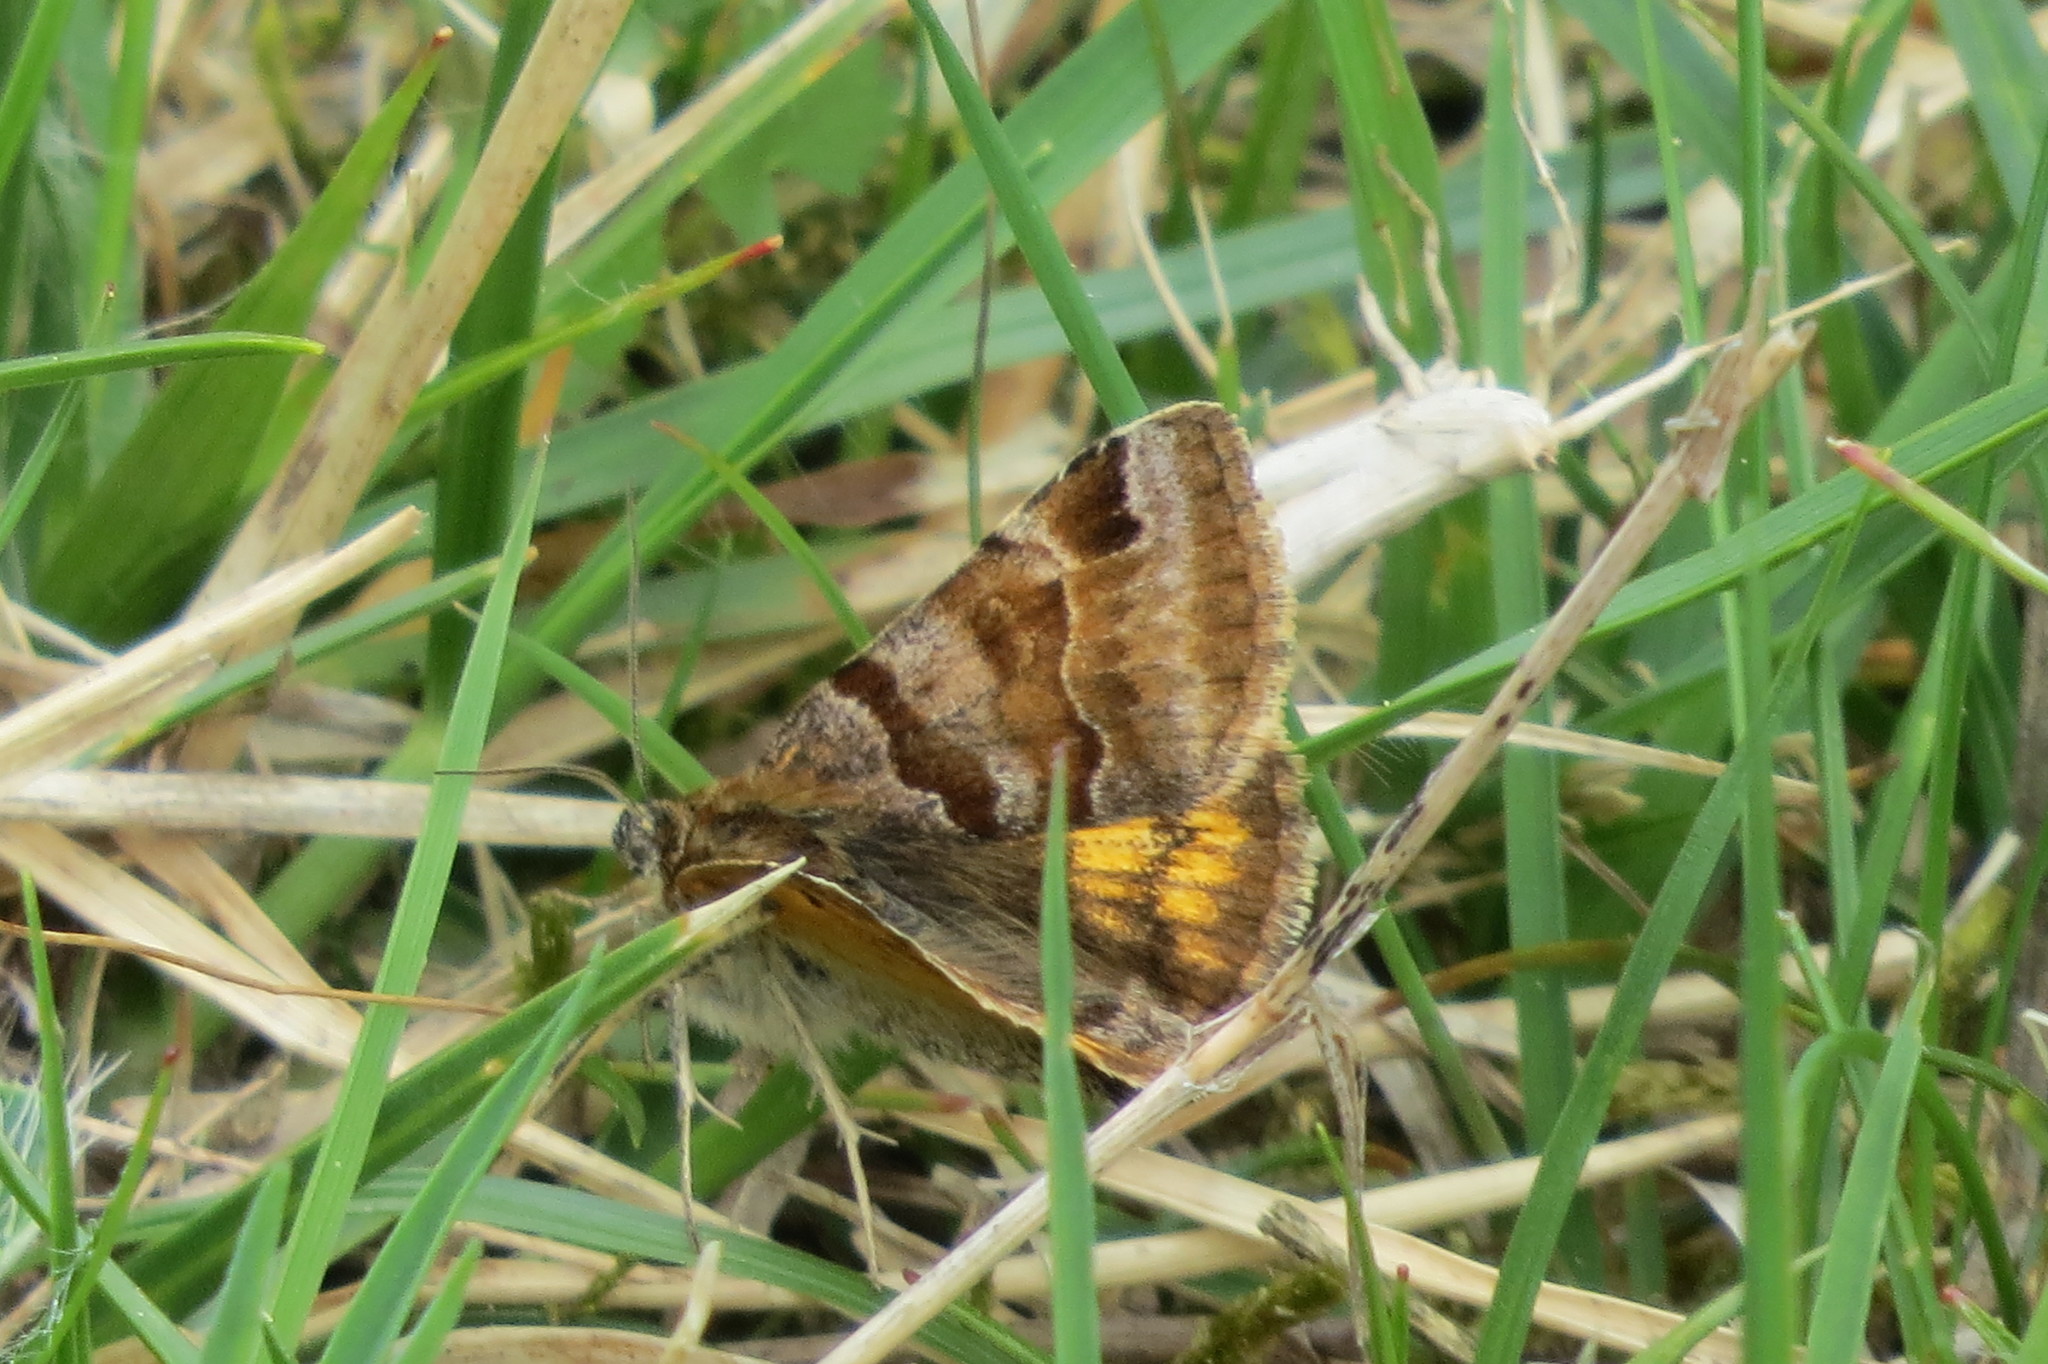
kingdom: Animalia
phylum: Arthropoda
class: Insecta
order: Lepidoptera
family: Erebidae
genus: Euclidia
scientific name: Euclidia glyphica
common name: Burnet companion
